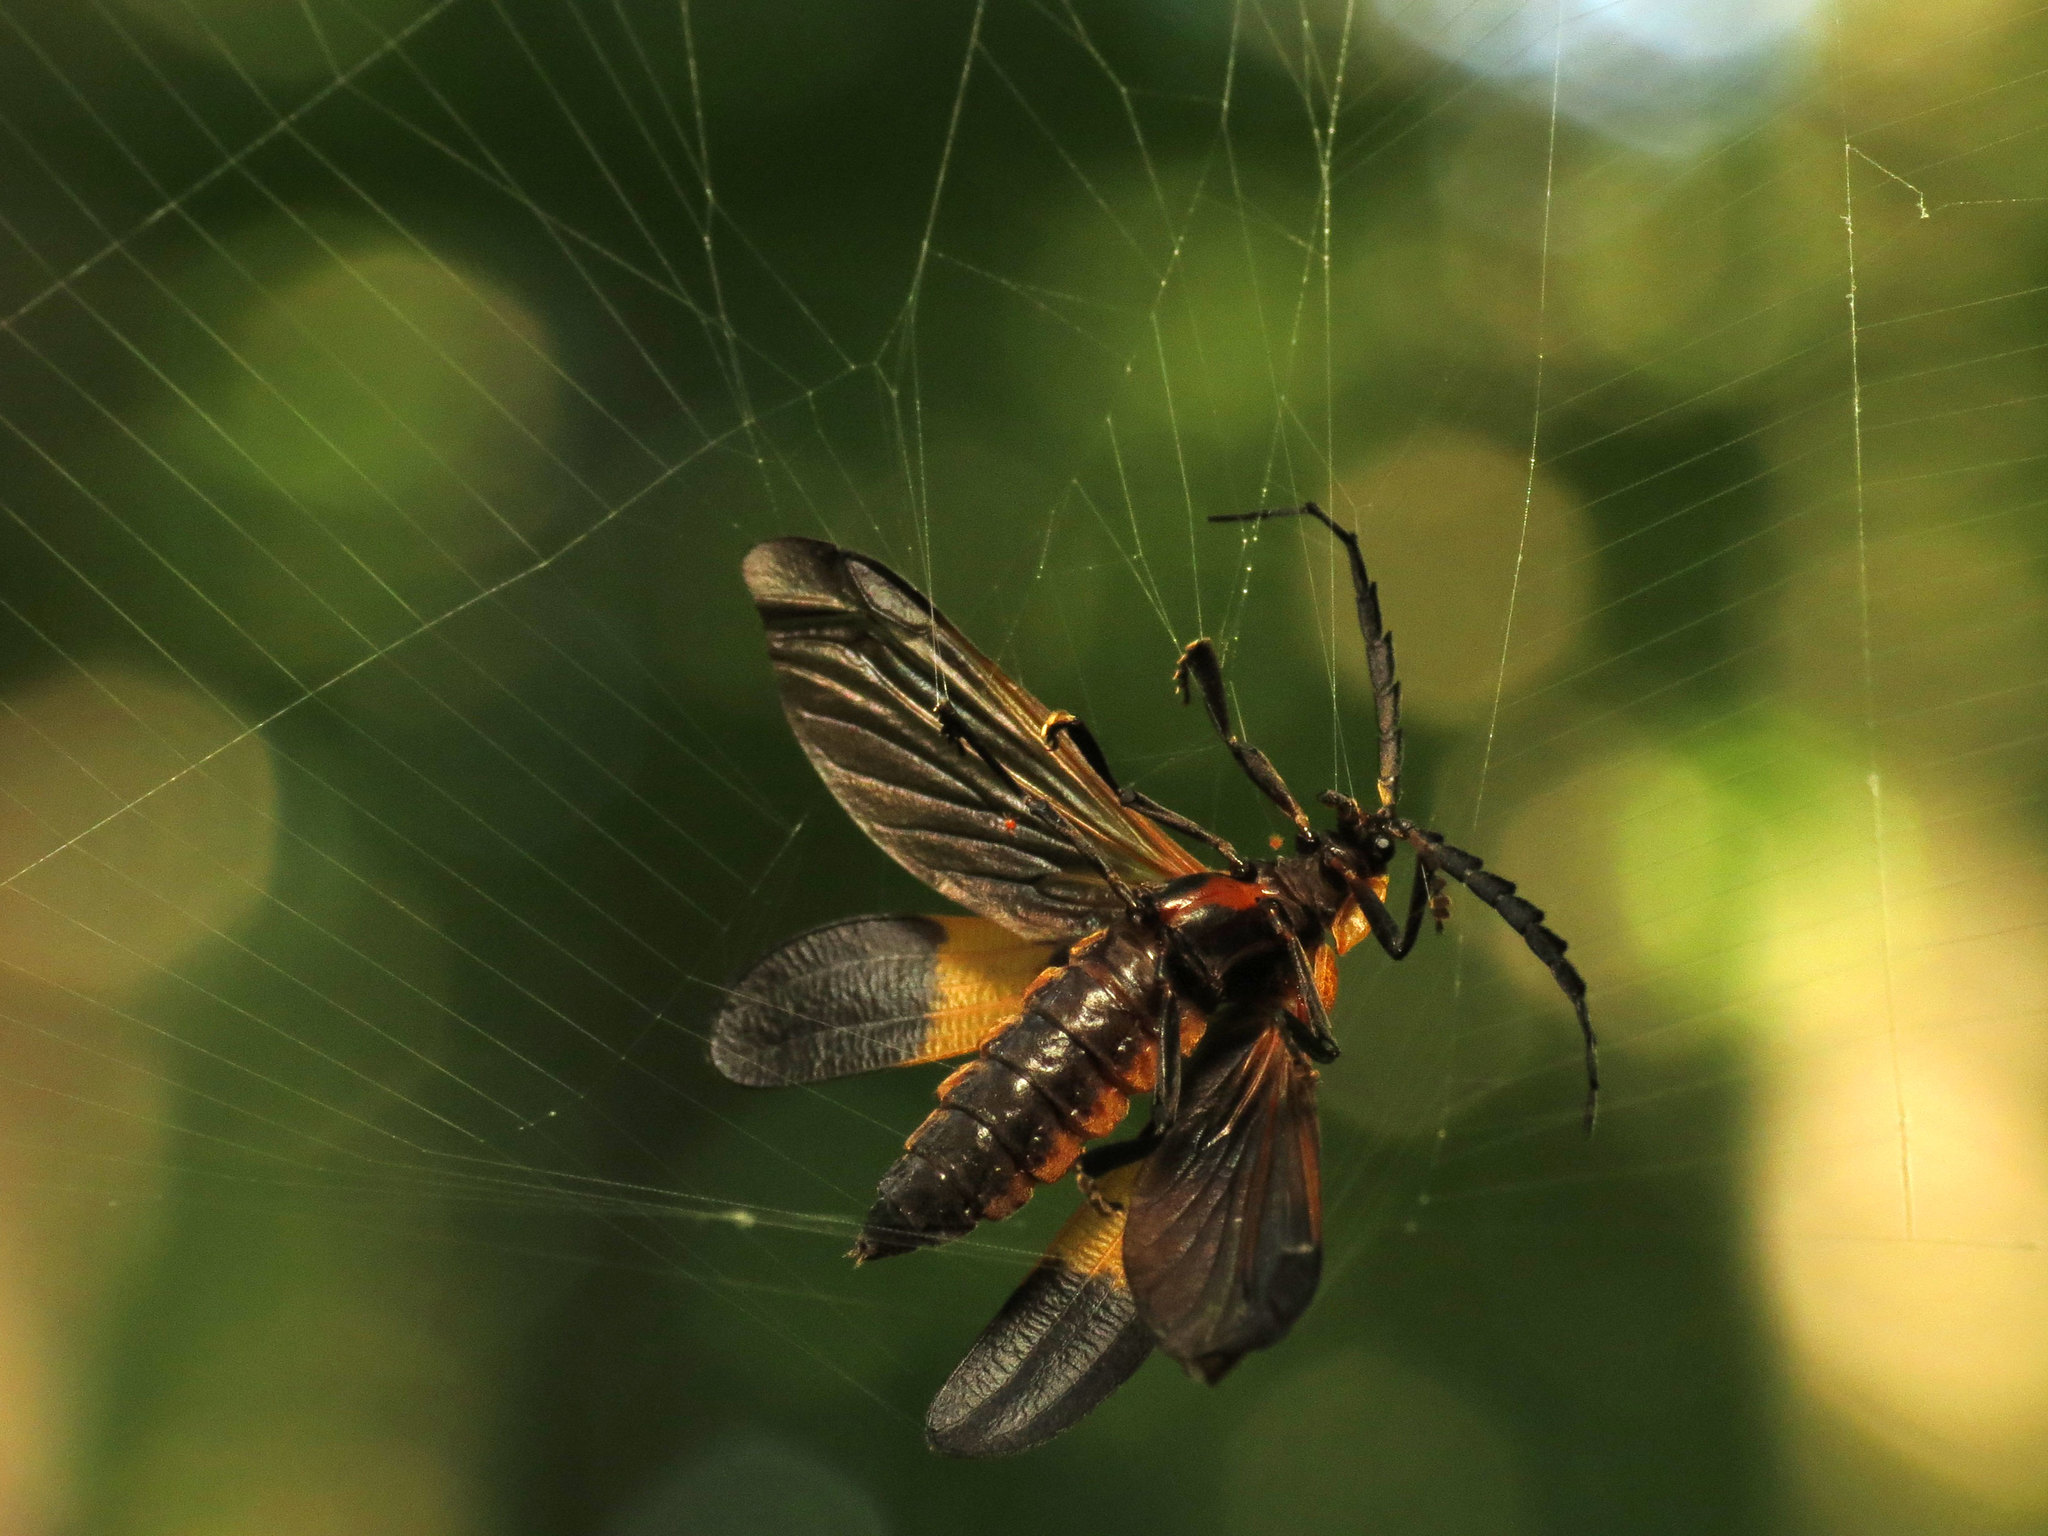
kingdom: Animalia
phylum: Arthropoda
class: Insecta
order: Coleoptera
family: Lycidae
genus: Calopteron
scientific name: Calopteron reticulatum
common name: Banded net-winged beetle
